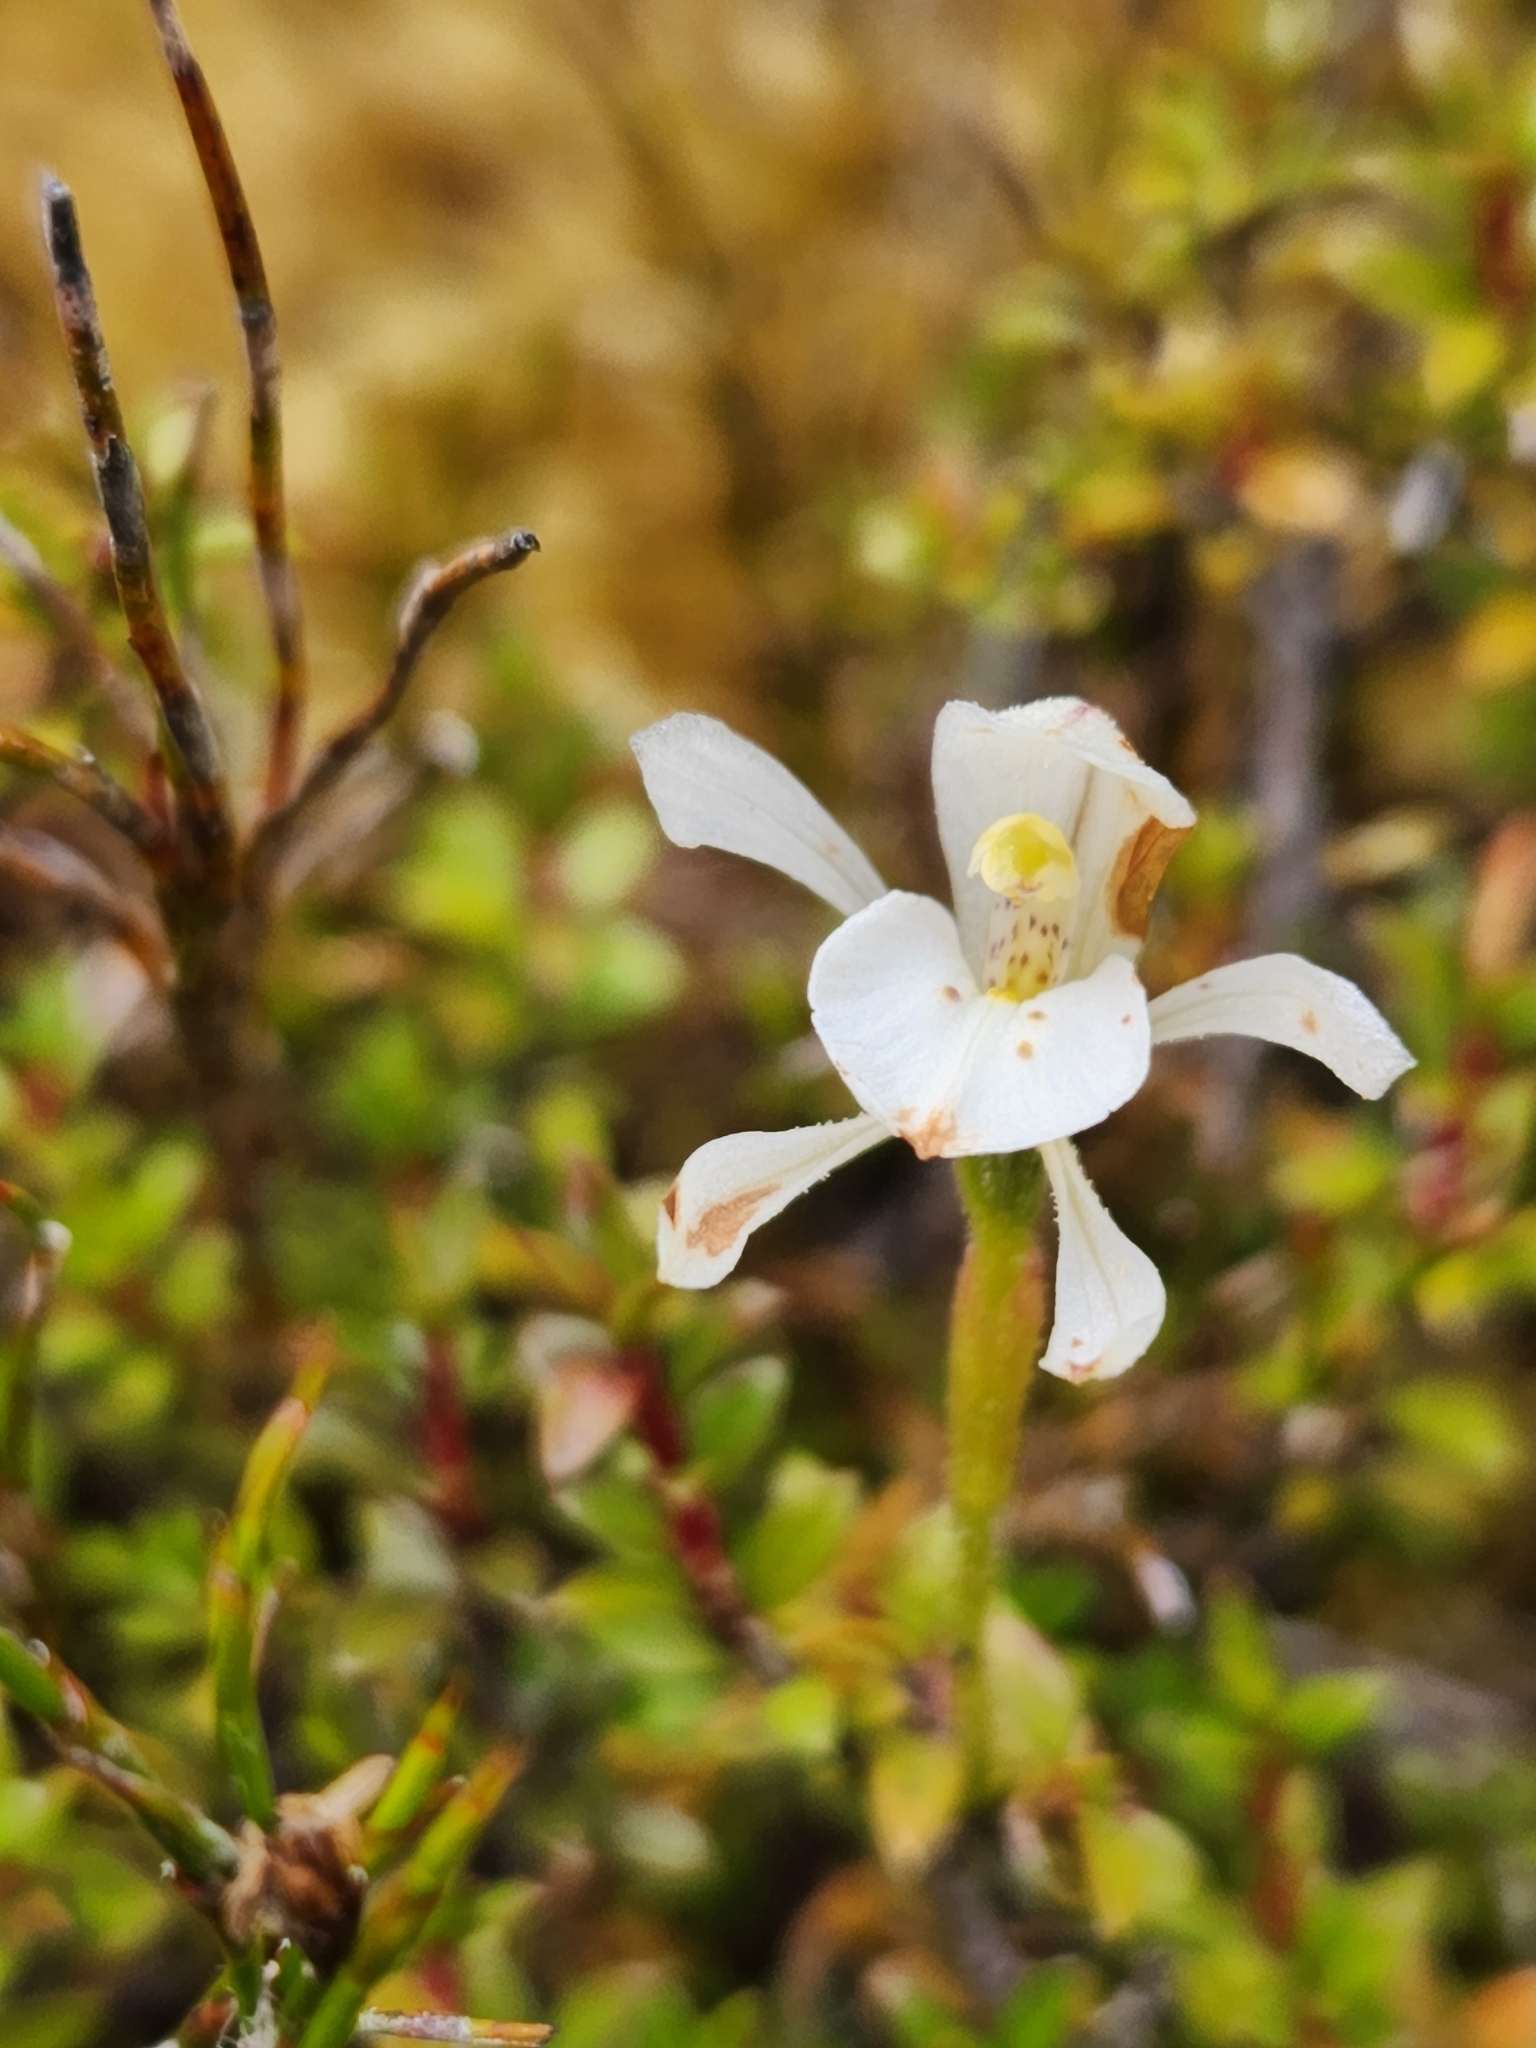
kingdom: Plantae
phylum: Tracheophyta
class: Liliopsida
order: Asparagales
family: Orchidaceae
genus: Aporostylis
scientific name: Aporostylis bifolia
